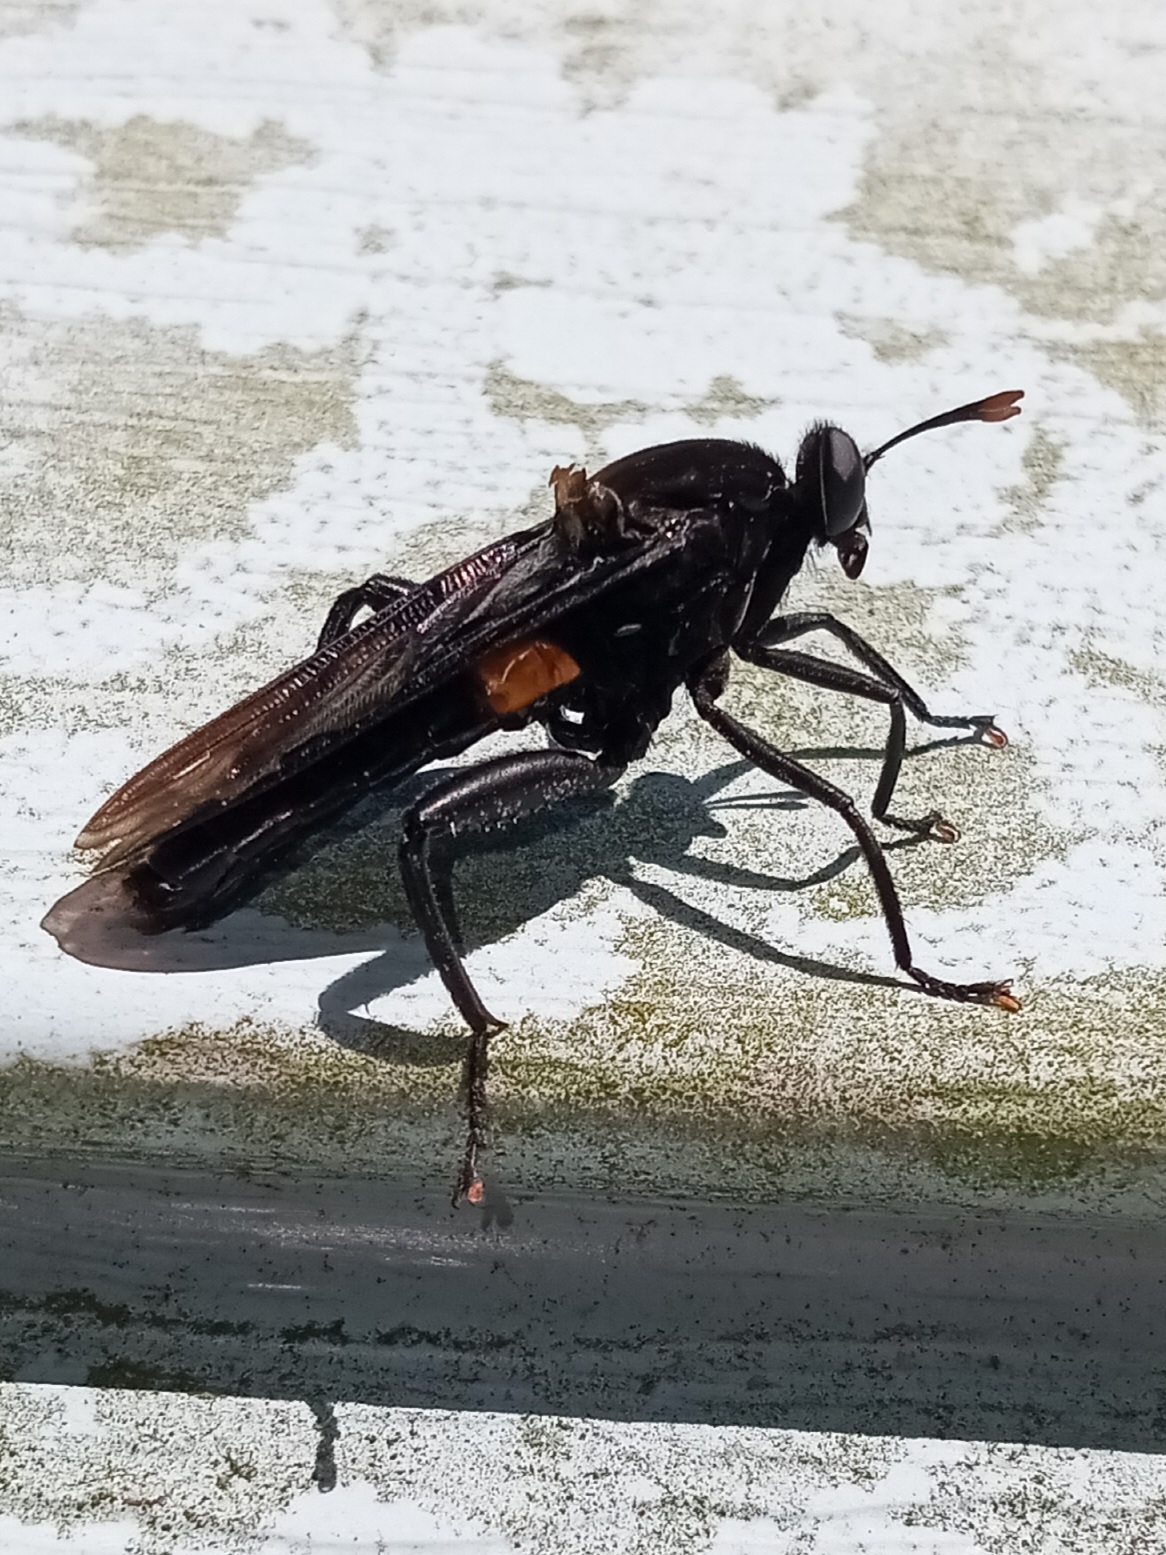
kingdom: Animalia
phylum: Arthropoda
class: Insecta
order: Diptera
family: Mydidae
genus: Mydas
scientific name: Mydas clavatus
